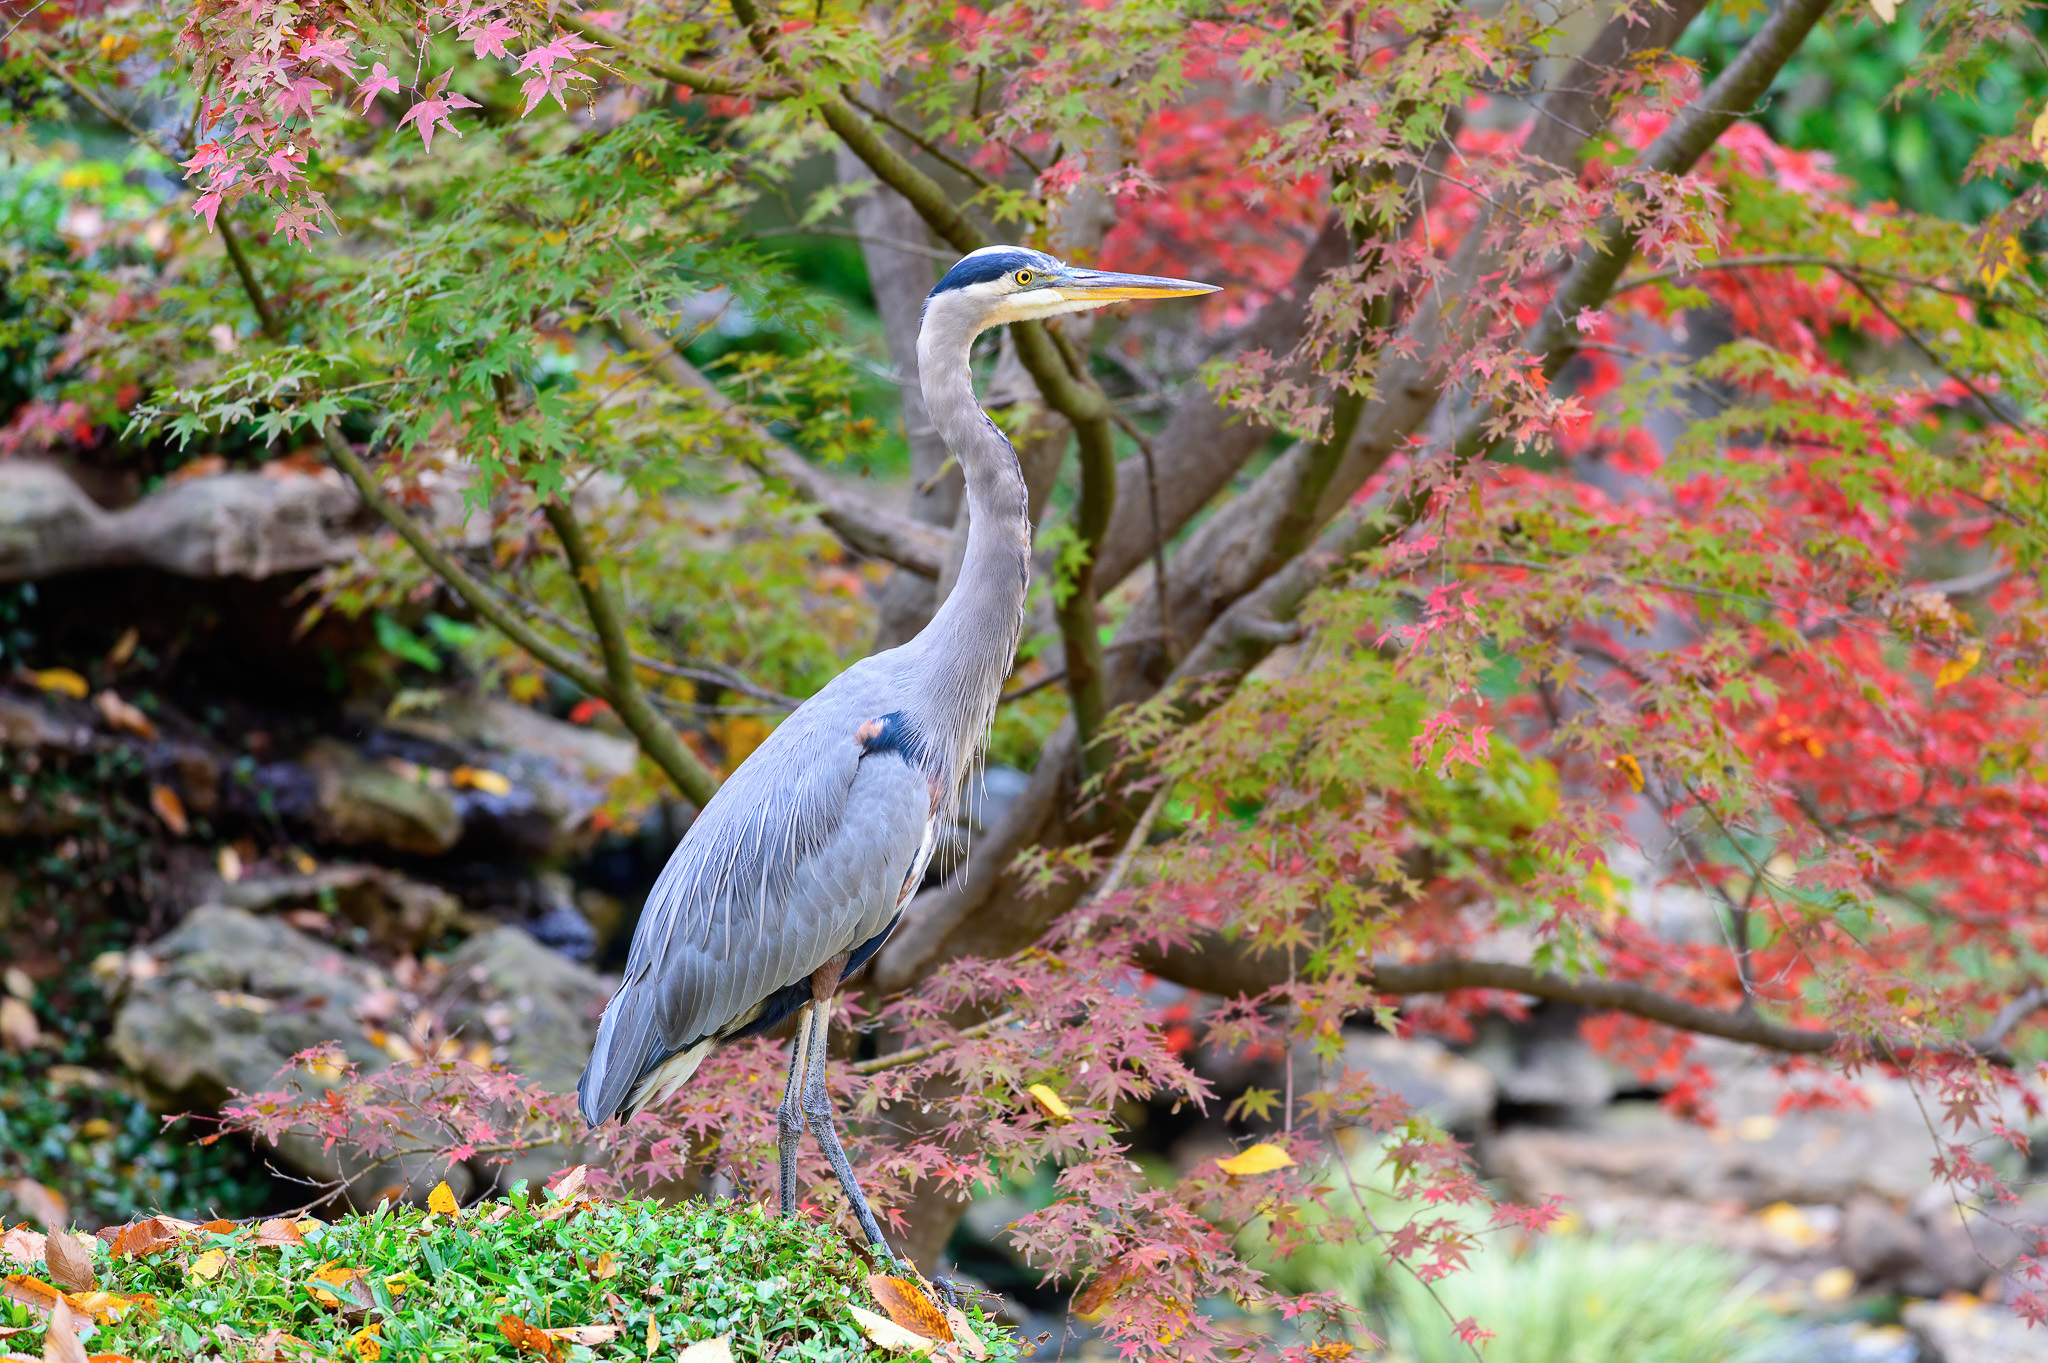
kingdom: Animalia
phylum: Chordata
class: Aves
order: Pelecaniformes
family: Ardeidae
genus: Ardea
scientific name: Ardea herodias
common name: Great blue heron
